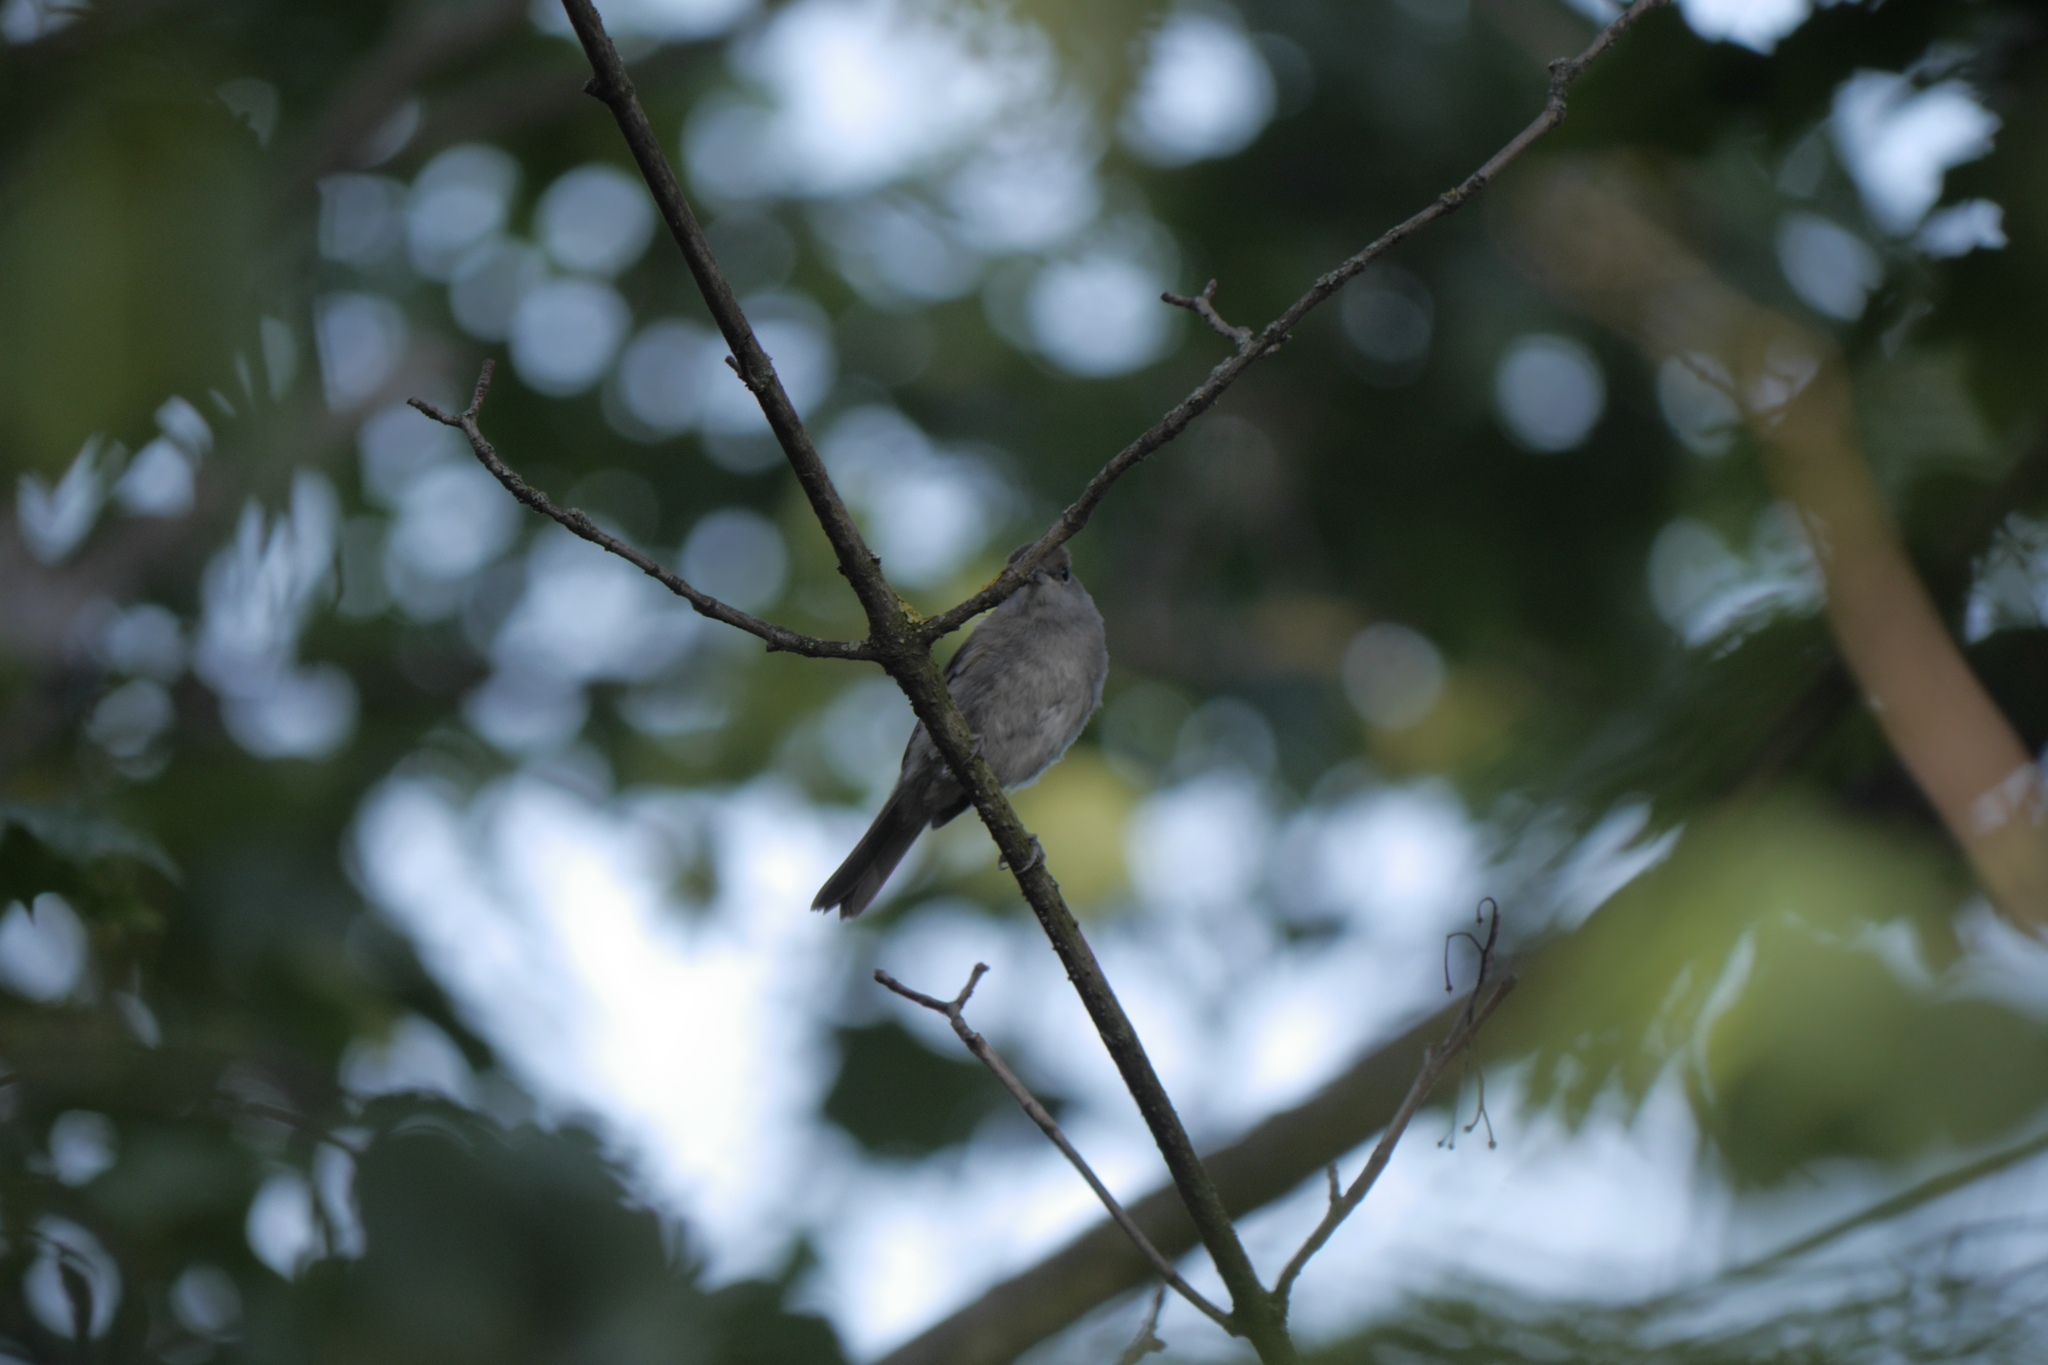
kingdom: Animalia
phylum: Chordata
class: Aves
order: Passeriformes
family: Sylviidae
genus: Sylvia
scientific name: Sylvia atricapilla
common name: Eurasian blackcap
